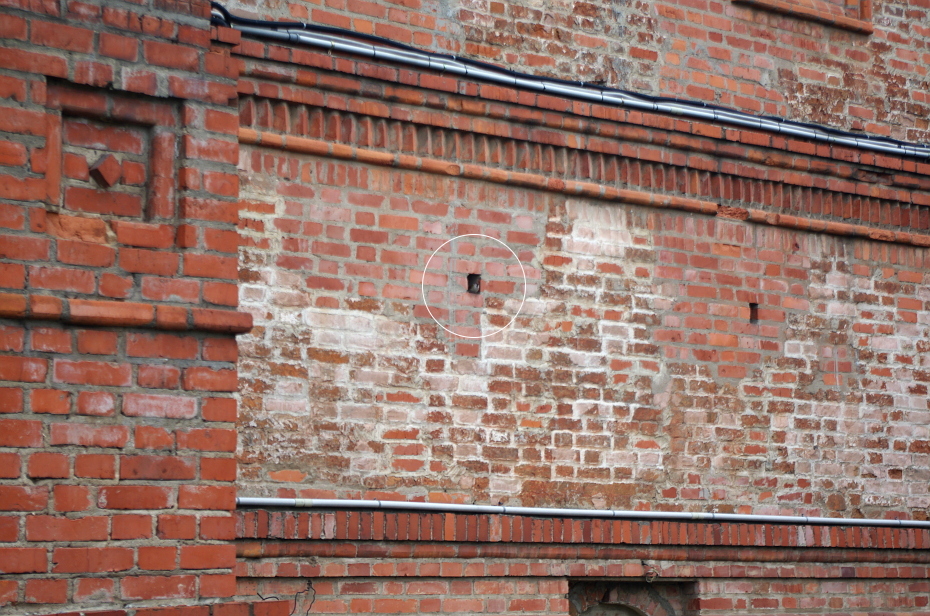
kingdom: Animalia
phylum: Chordata
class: Aves
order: Passeriformes
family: Passeridae
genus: Passer
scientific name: Passer montanus
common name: Eurasian tree sparrow
